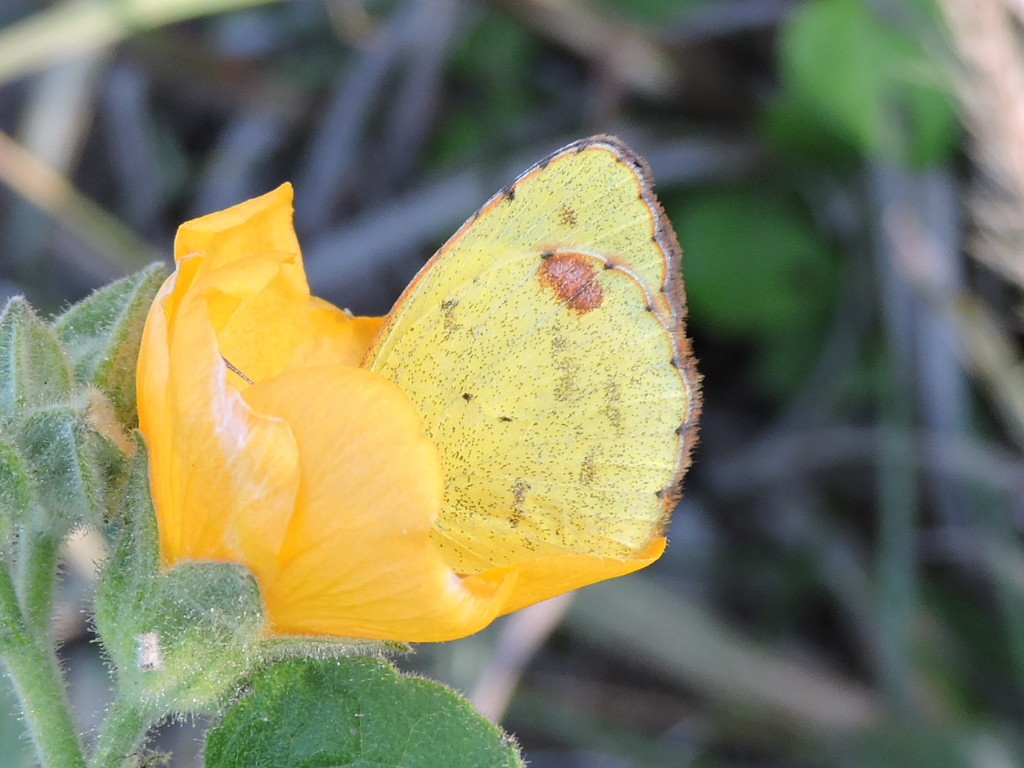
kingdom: Animalia
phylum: Arthropoda
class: Insecta
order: Lepidoptera
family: Pieridae
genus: Pyrisitia
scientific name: Pyrisitia lisa
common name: Little yellow
